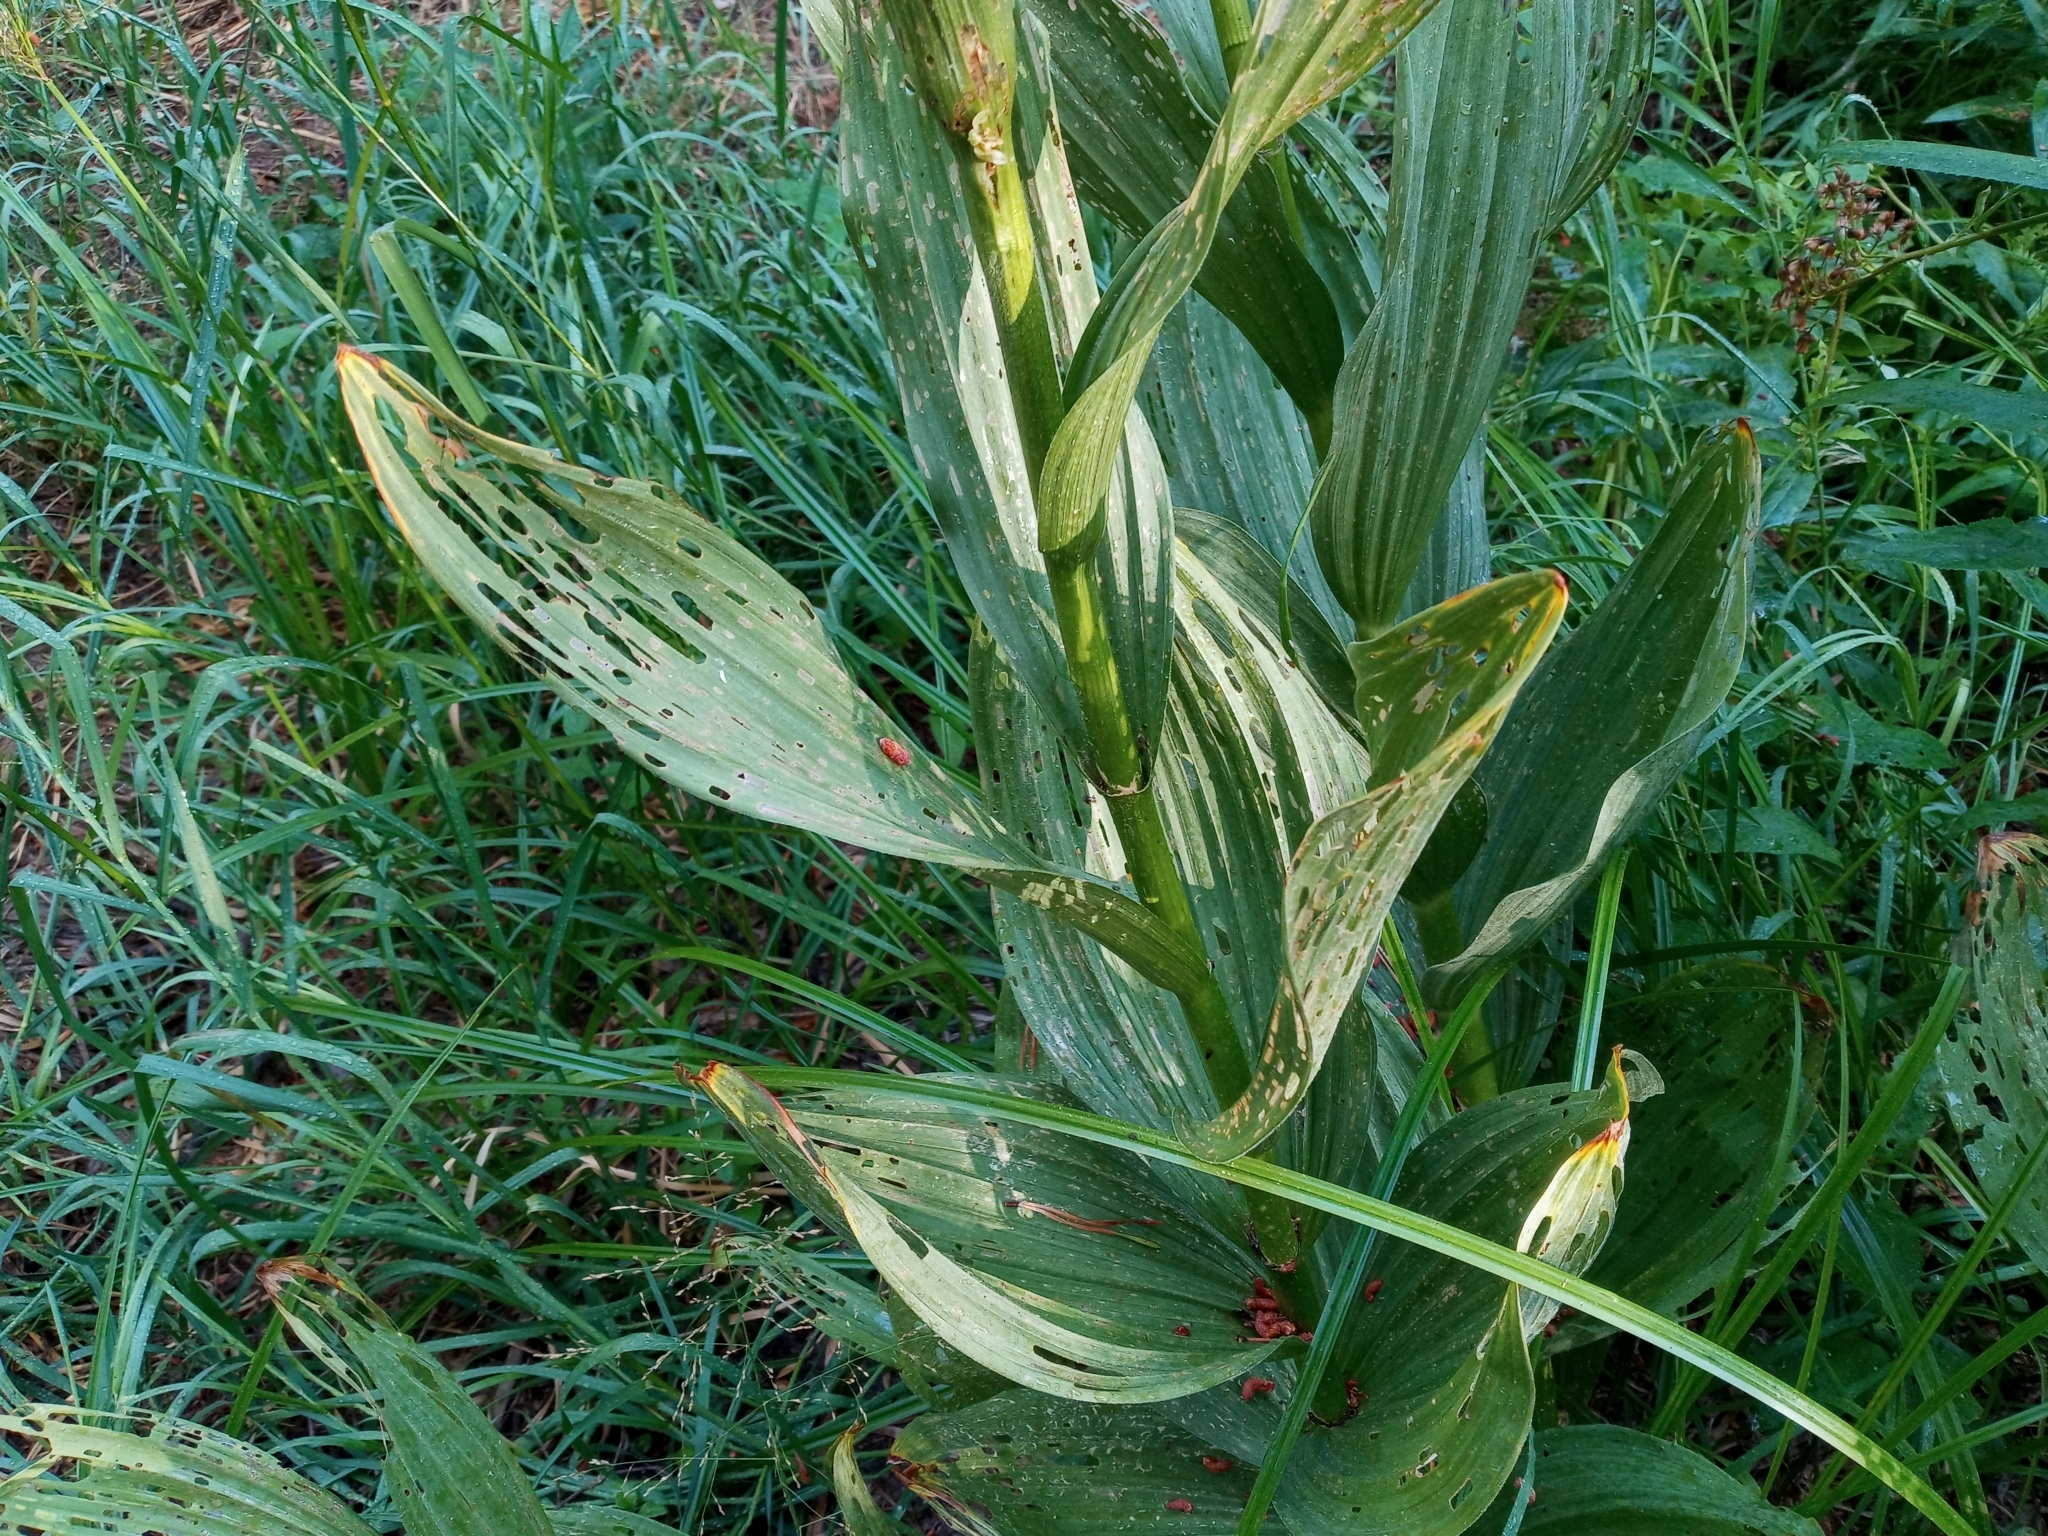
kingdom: Plantae
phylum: Tracheophyta
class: Liliopsida
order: Liliales
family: Melanthiaceae
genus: Veratrum
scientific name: Veratrum californicum
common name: California veratrum
